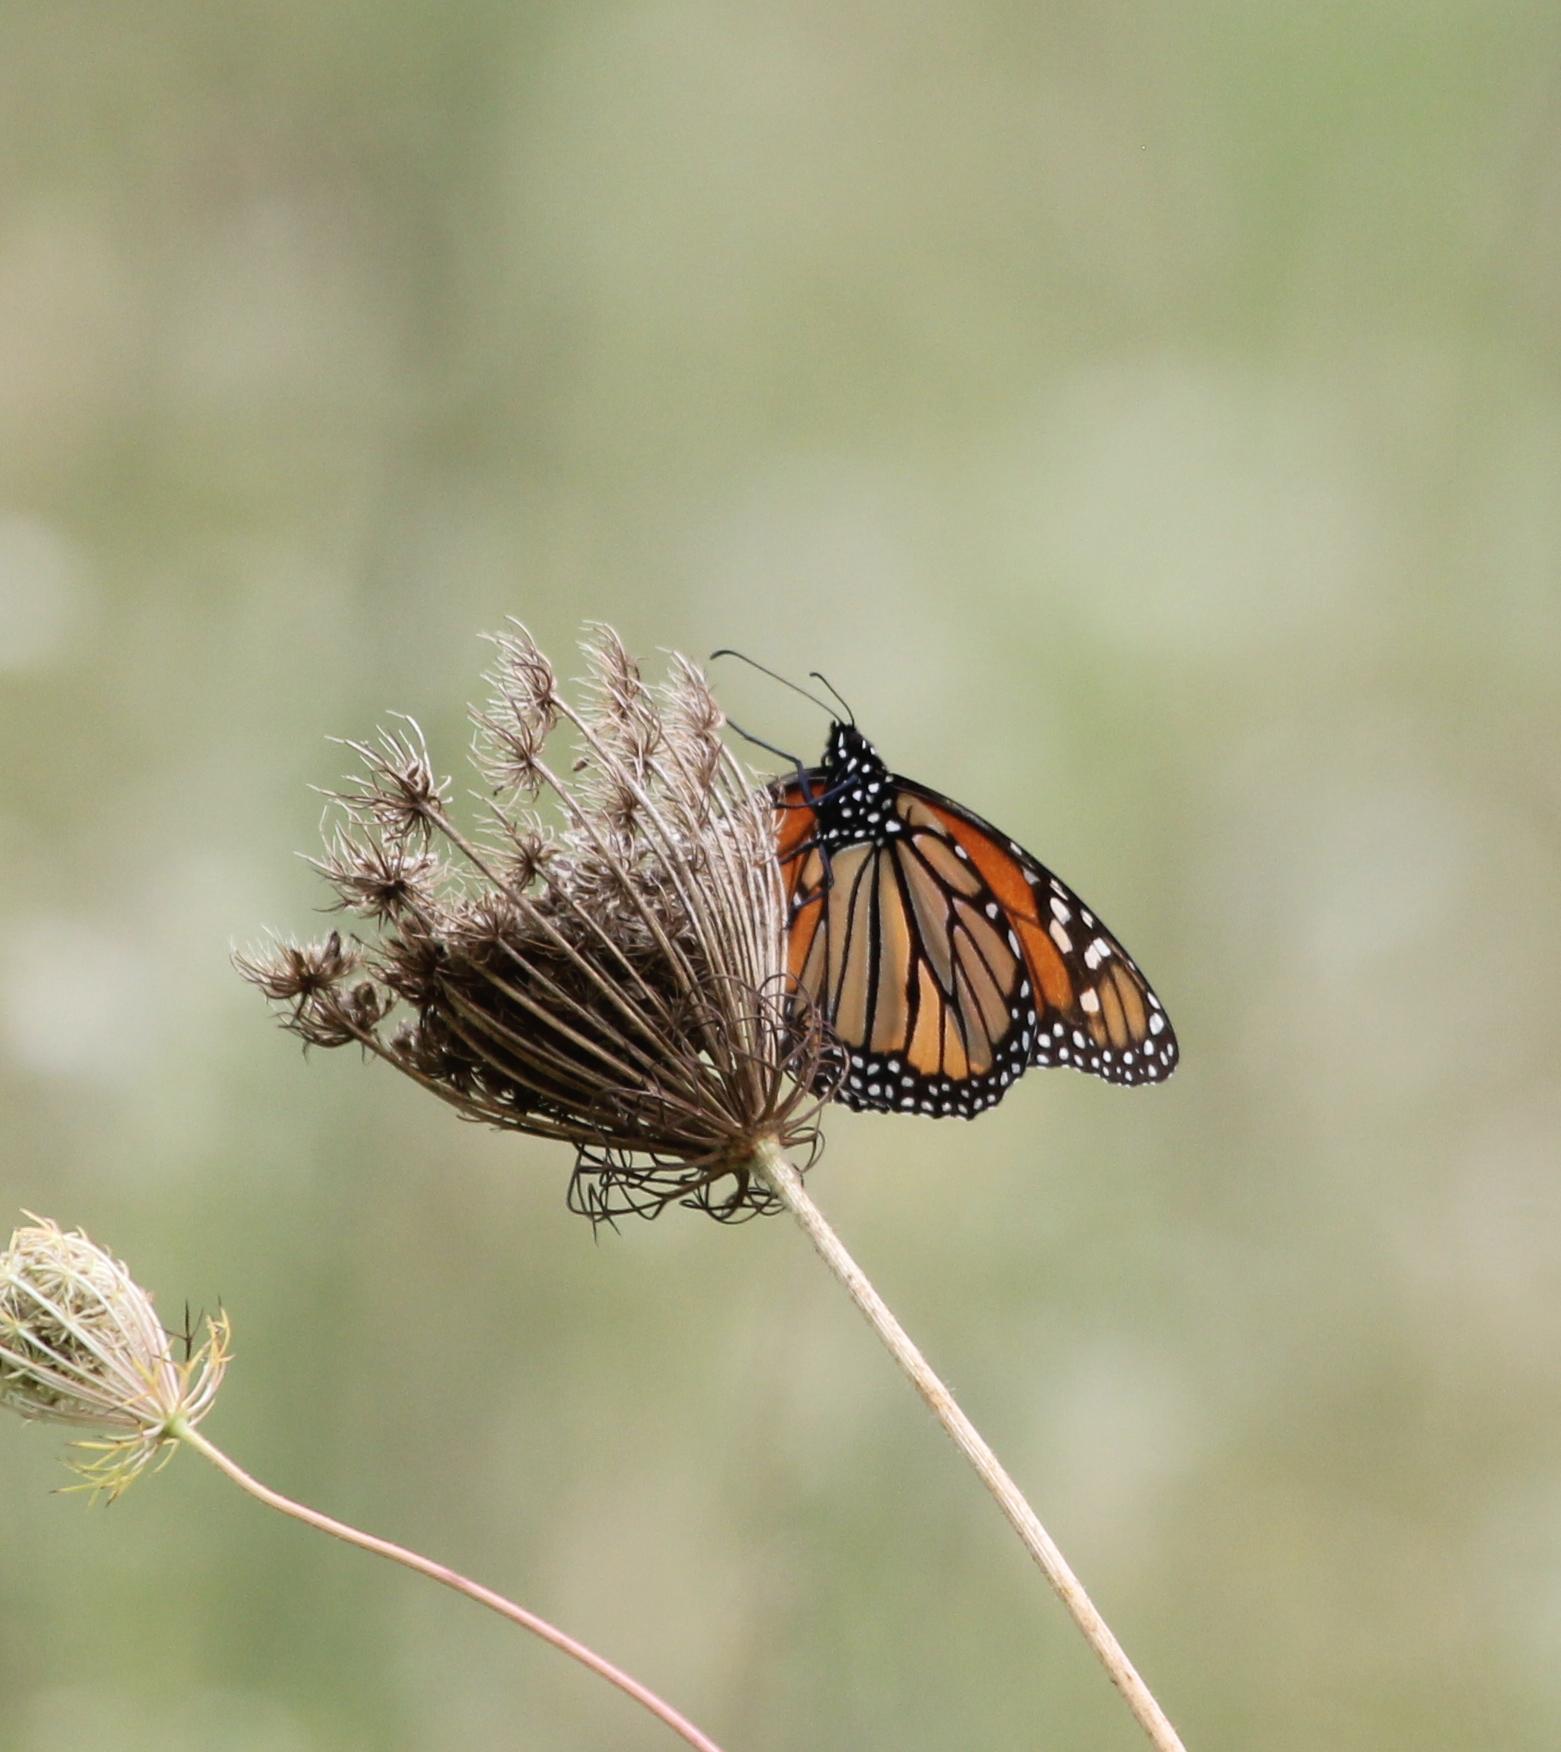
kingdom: Animalia
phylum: Arthropoda
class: Insecta
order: Lepidoptera
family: Nymphalidae
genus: Danaus
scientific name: Danaus plexippus
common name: Monarch
